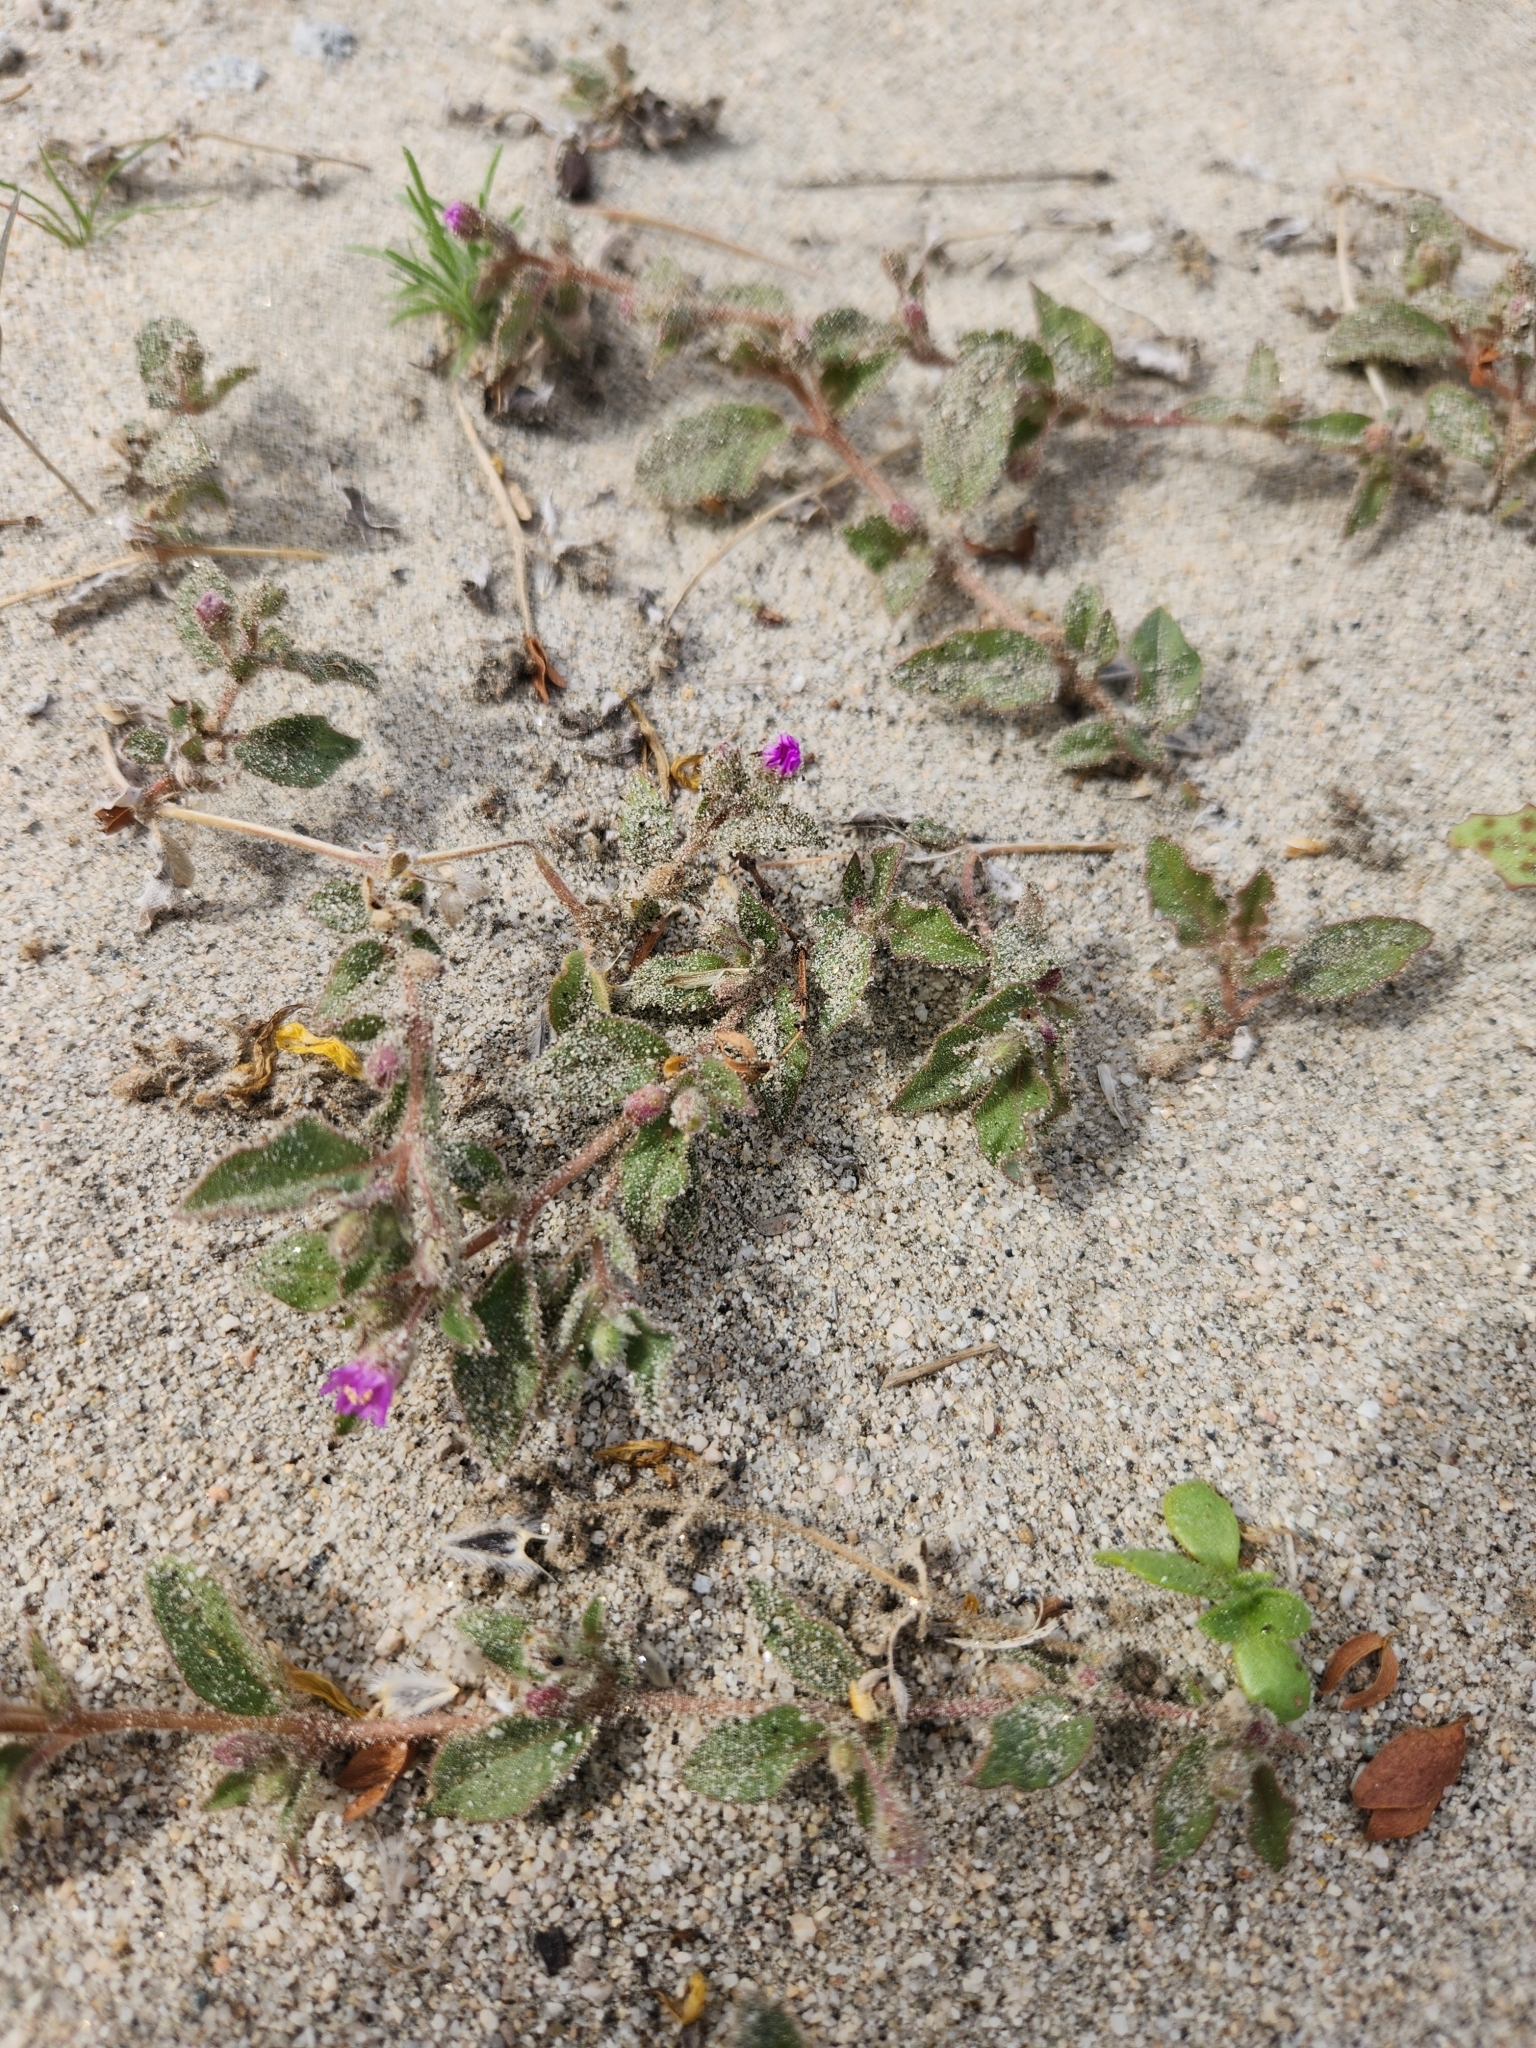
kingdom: Plantae
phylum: Tracheophyta
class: Magnoliopsida
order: Caryophyllales
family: Nyctaginaceae
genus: Allionia
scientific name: Allionia incarnata
